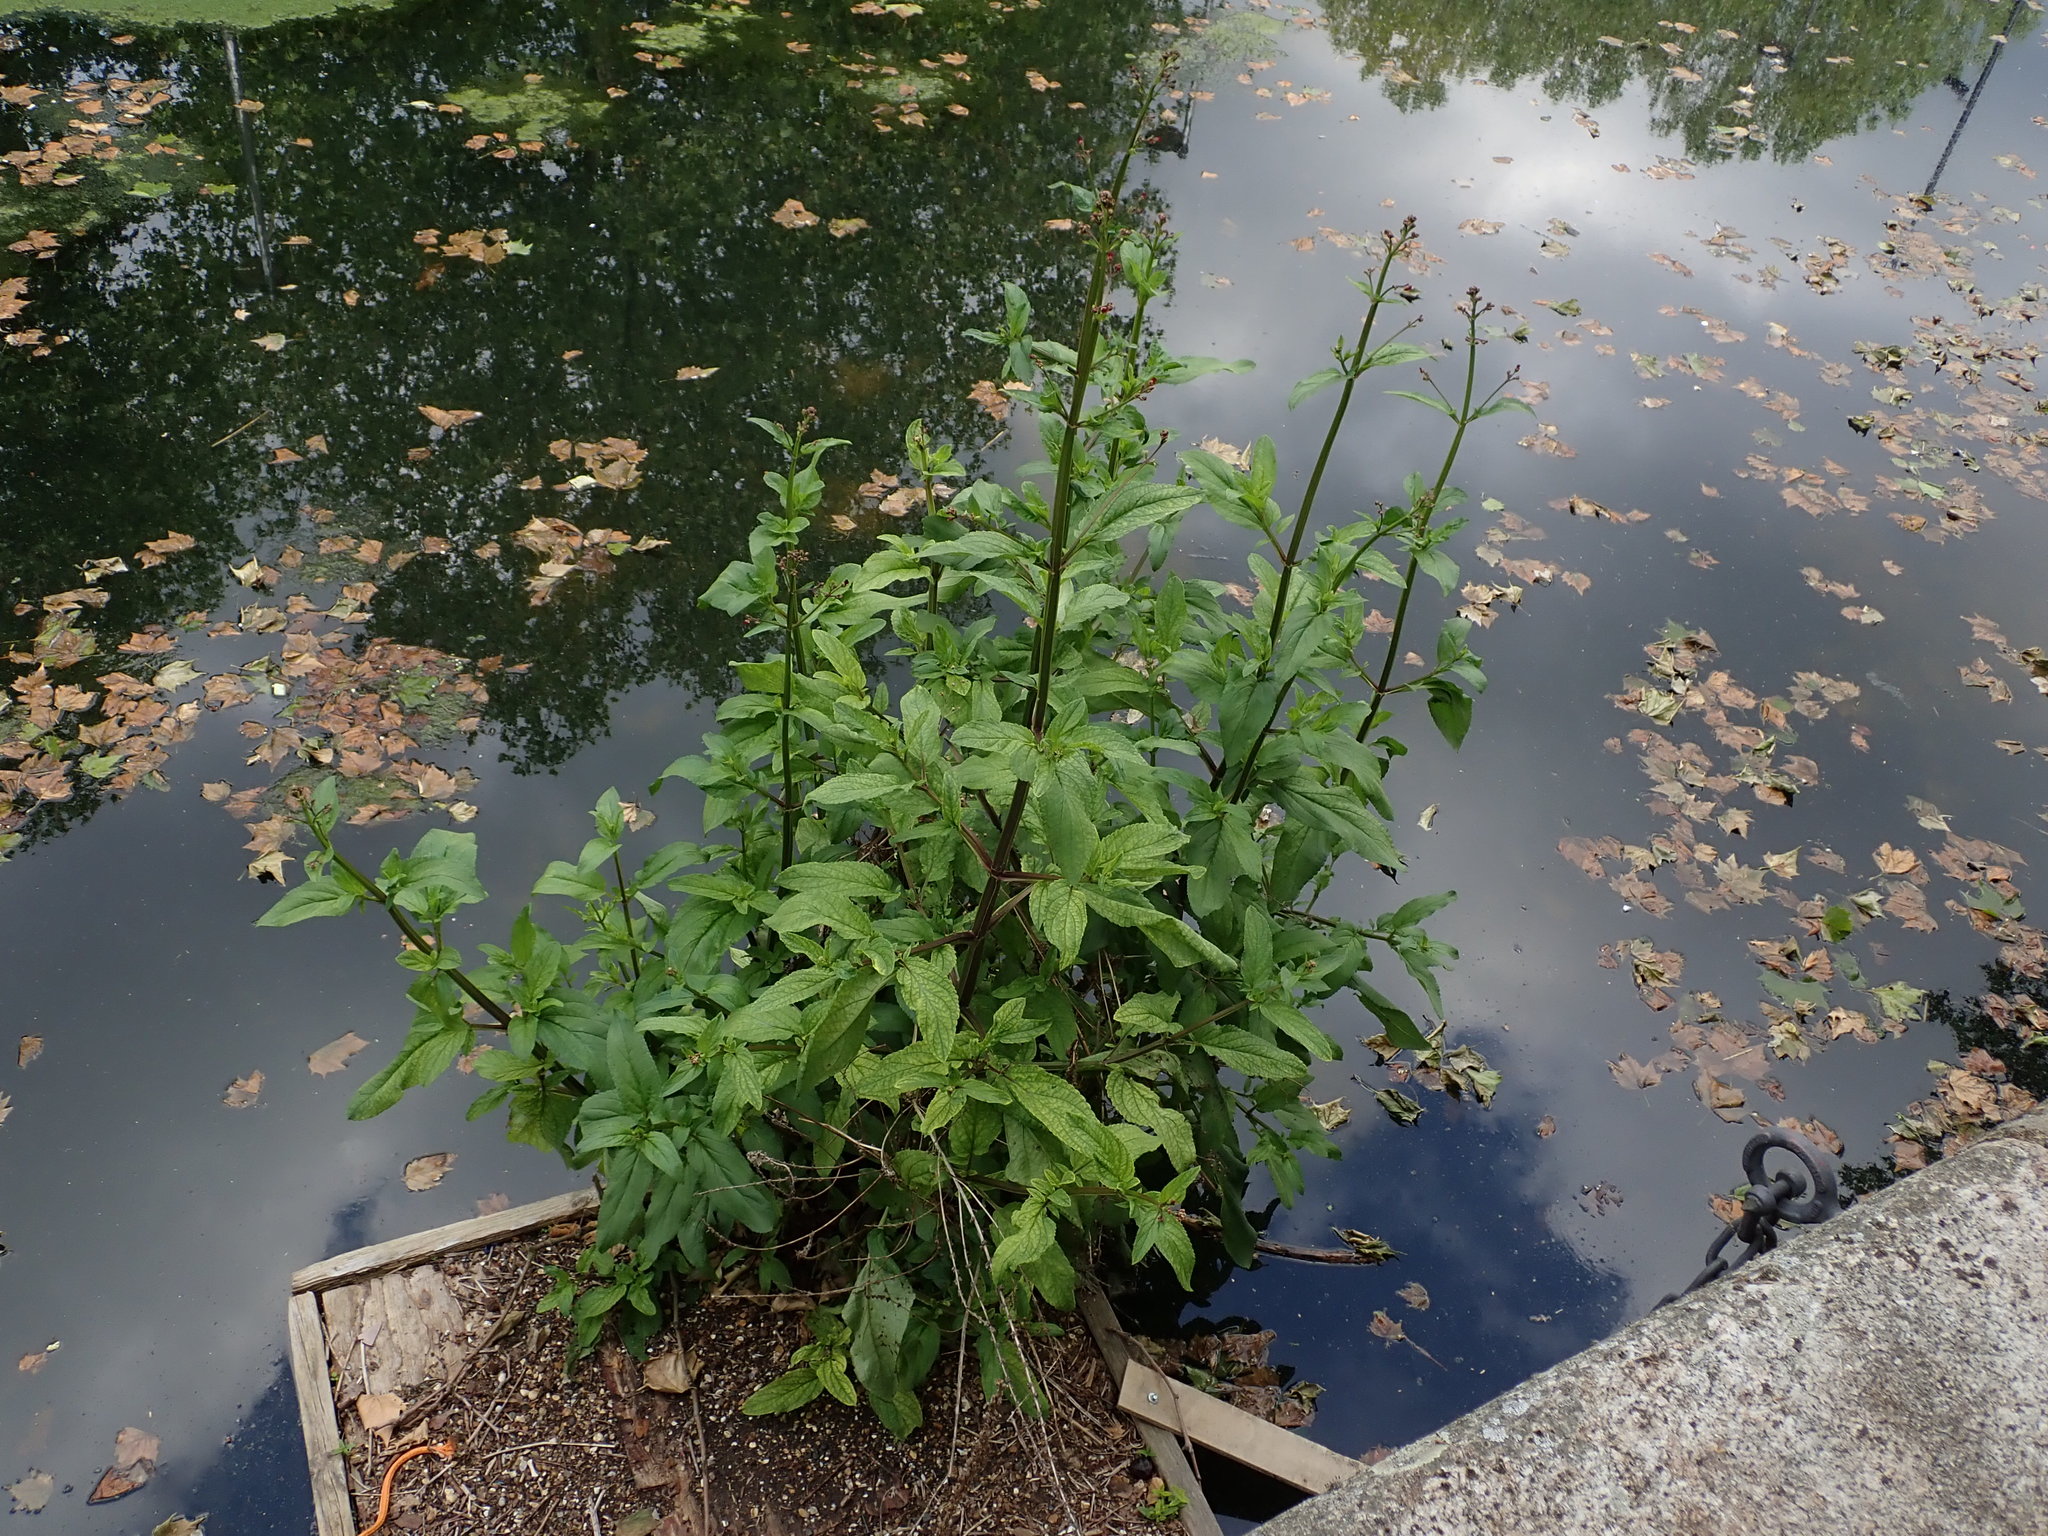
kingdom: Plantae
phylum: Tracheophyta
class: Magnoliopsida
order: Lamiales
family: Scrophulariaceae
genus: Scrophularia
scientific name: Scrophularia auriculata
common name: Water betony
